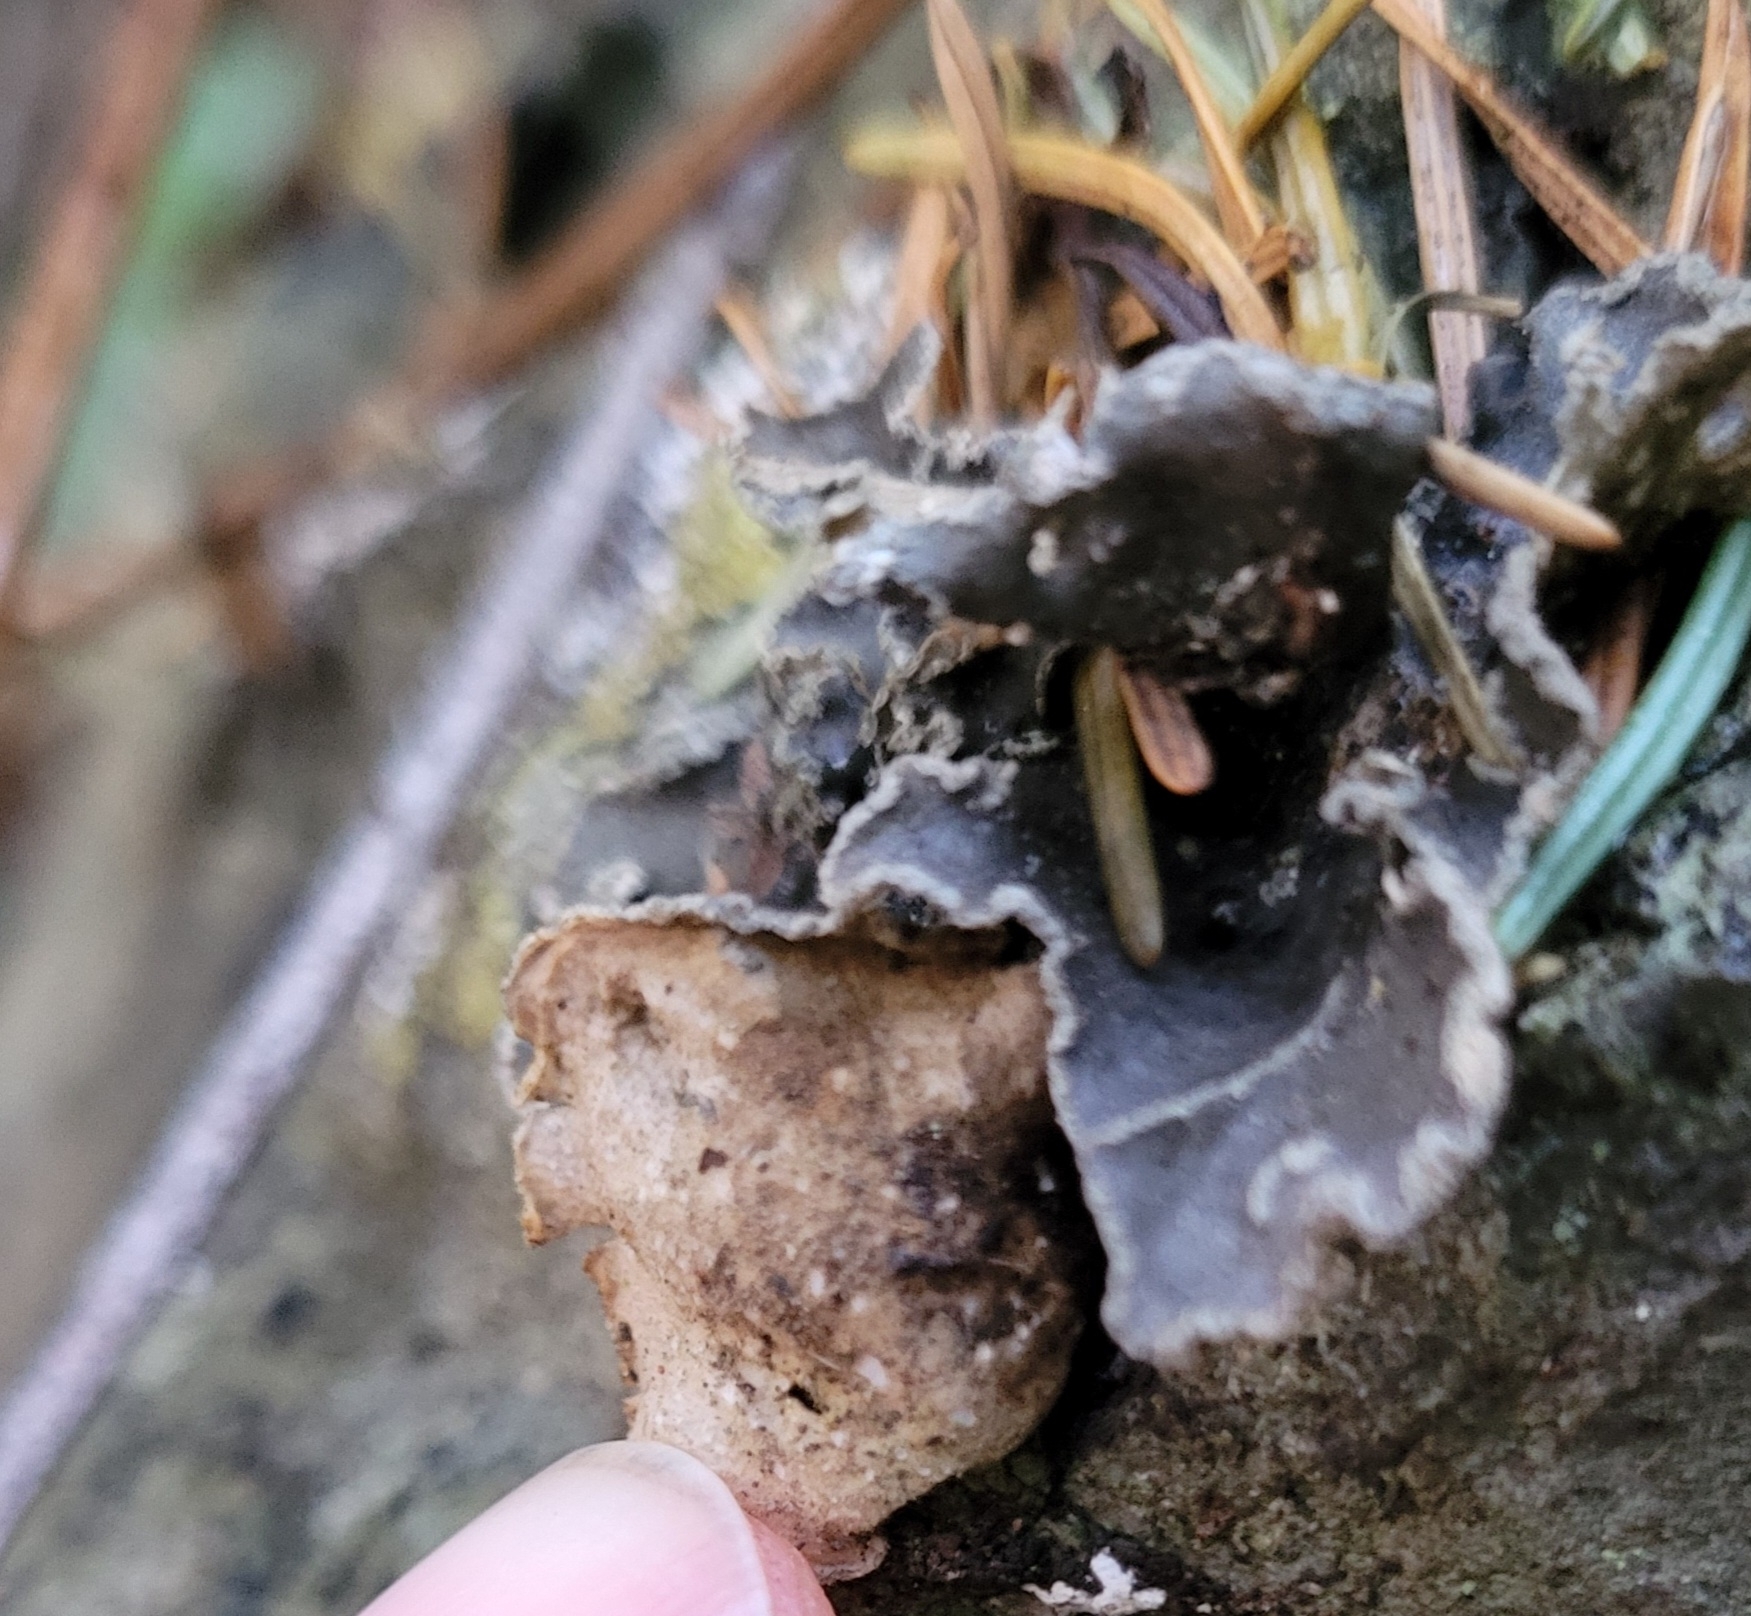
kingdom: Fungi
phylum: Ascomycota
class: Lecanoromycetes
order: Peltigerales
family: Lobariaceae
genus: Sticta
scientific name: Sticta limbata
